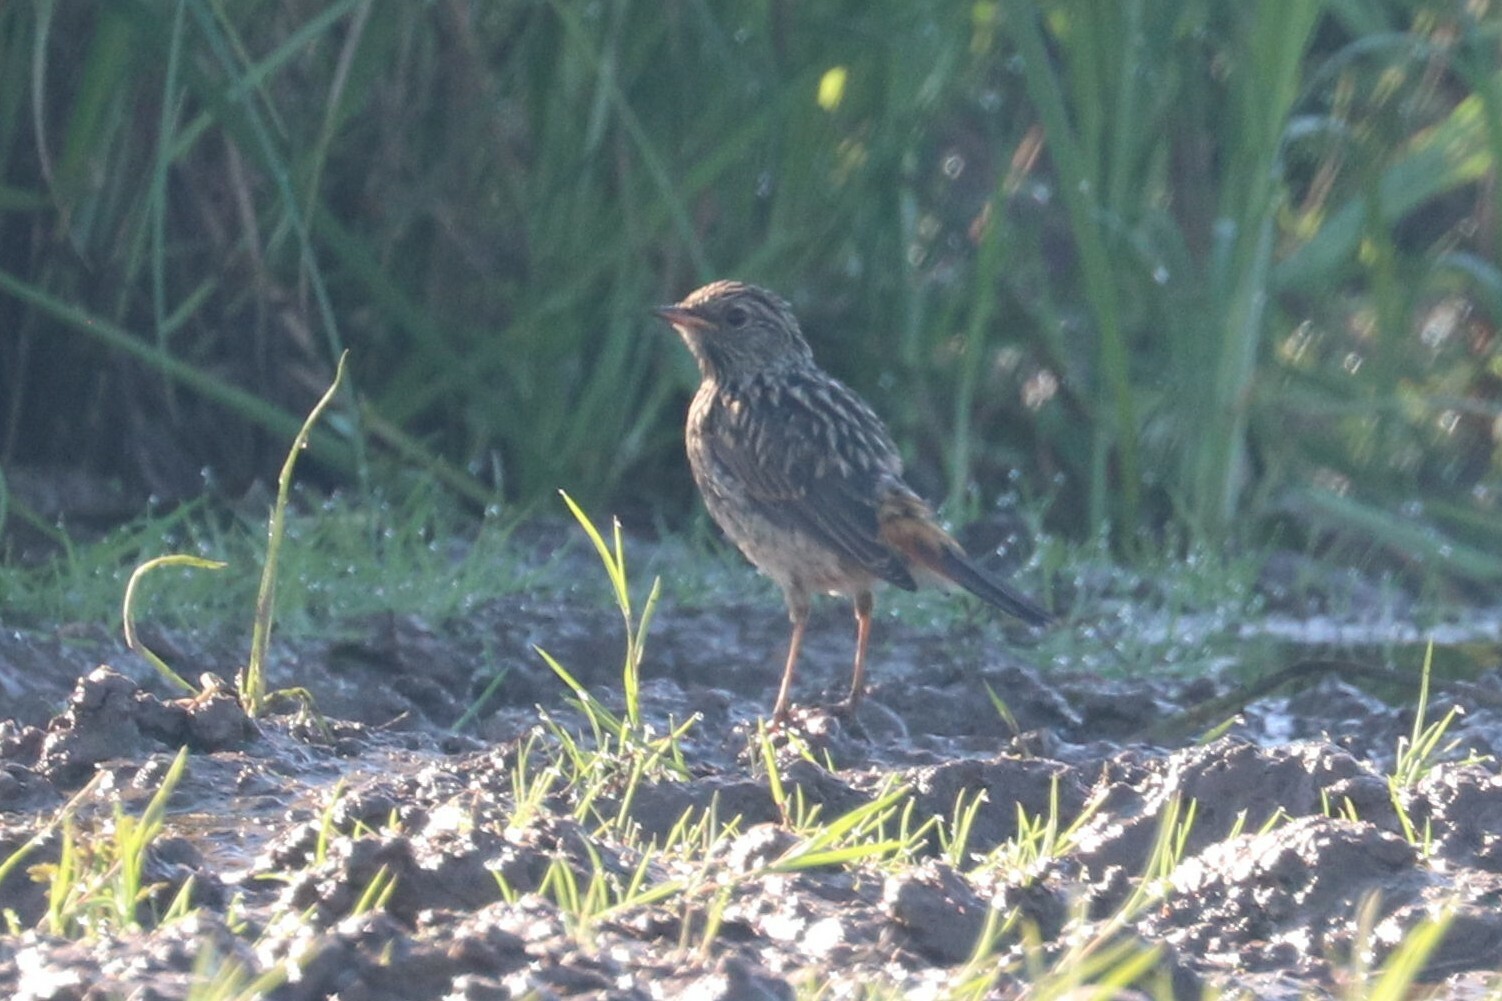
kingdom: Animalia
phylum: Chordata
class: Aves
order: Passeriformes
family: Muscicapidae
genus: Luscinia
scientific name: Luscinia svecica
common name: Bluethroat
